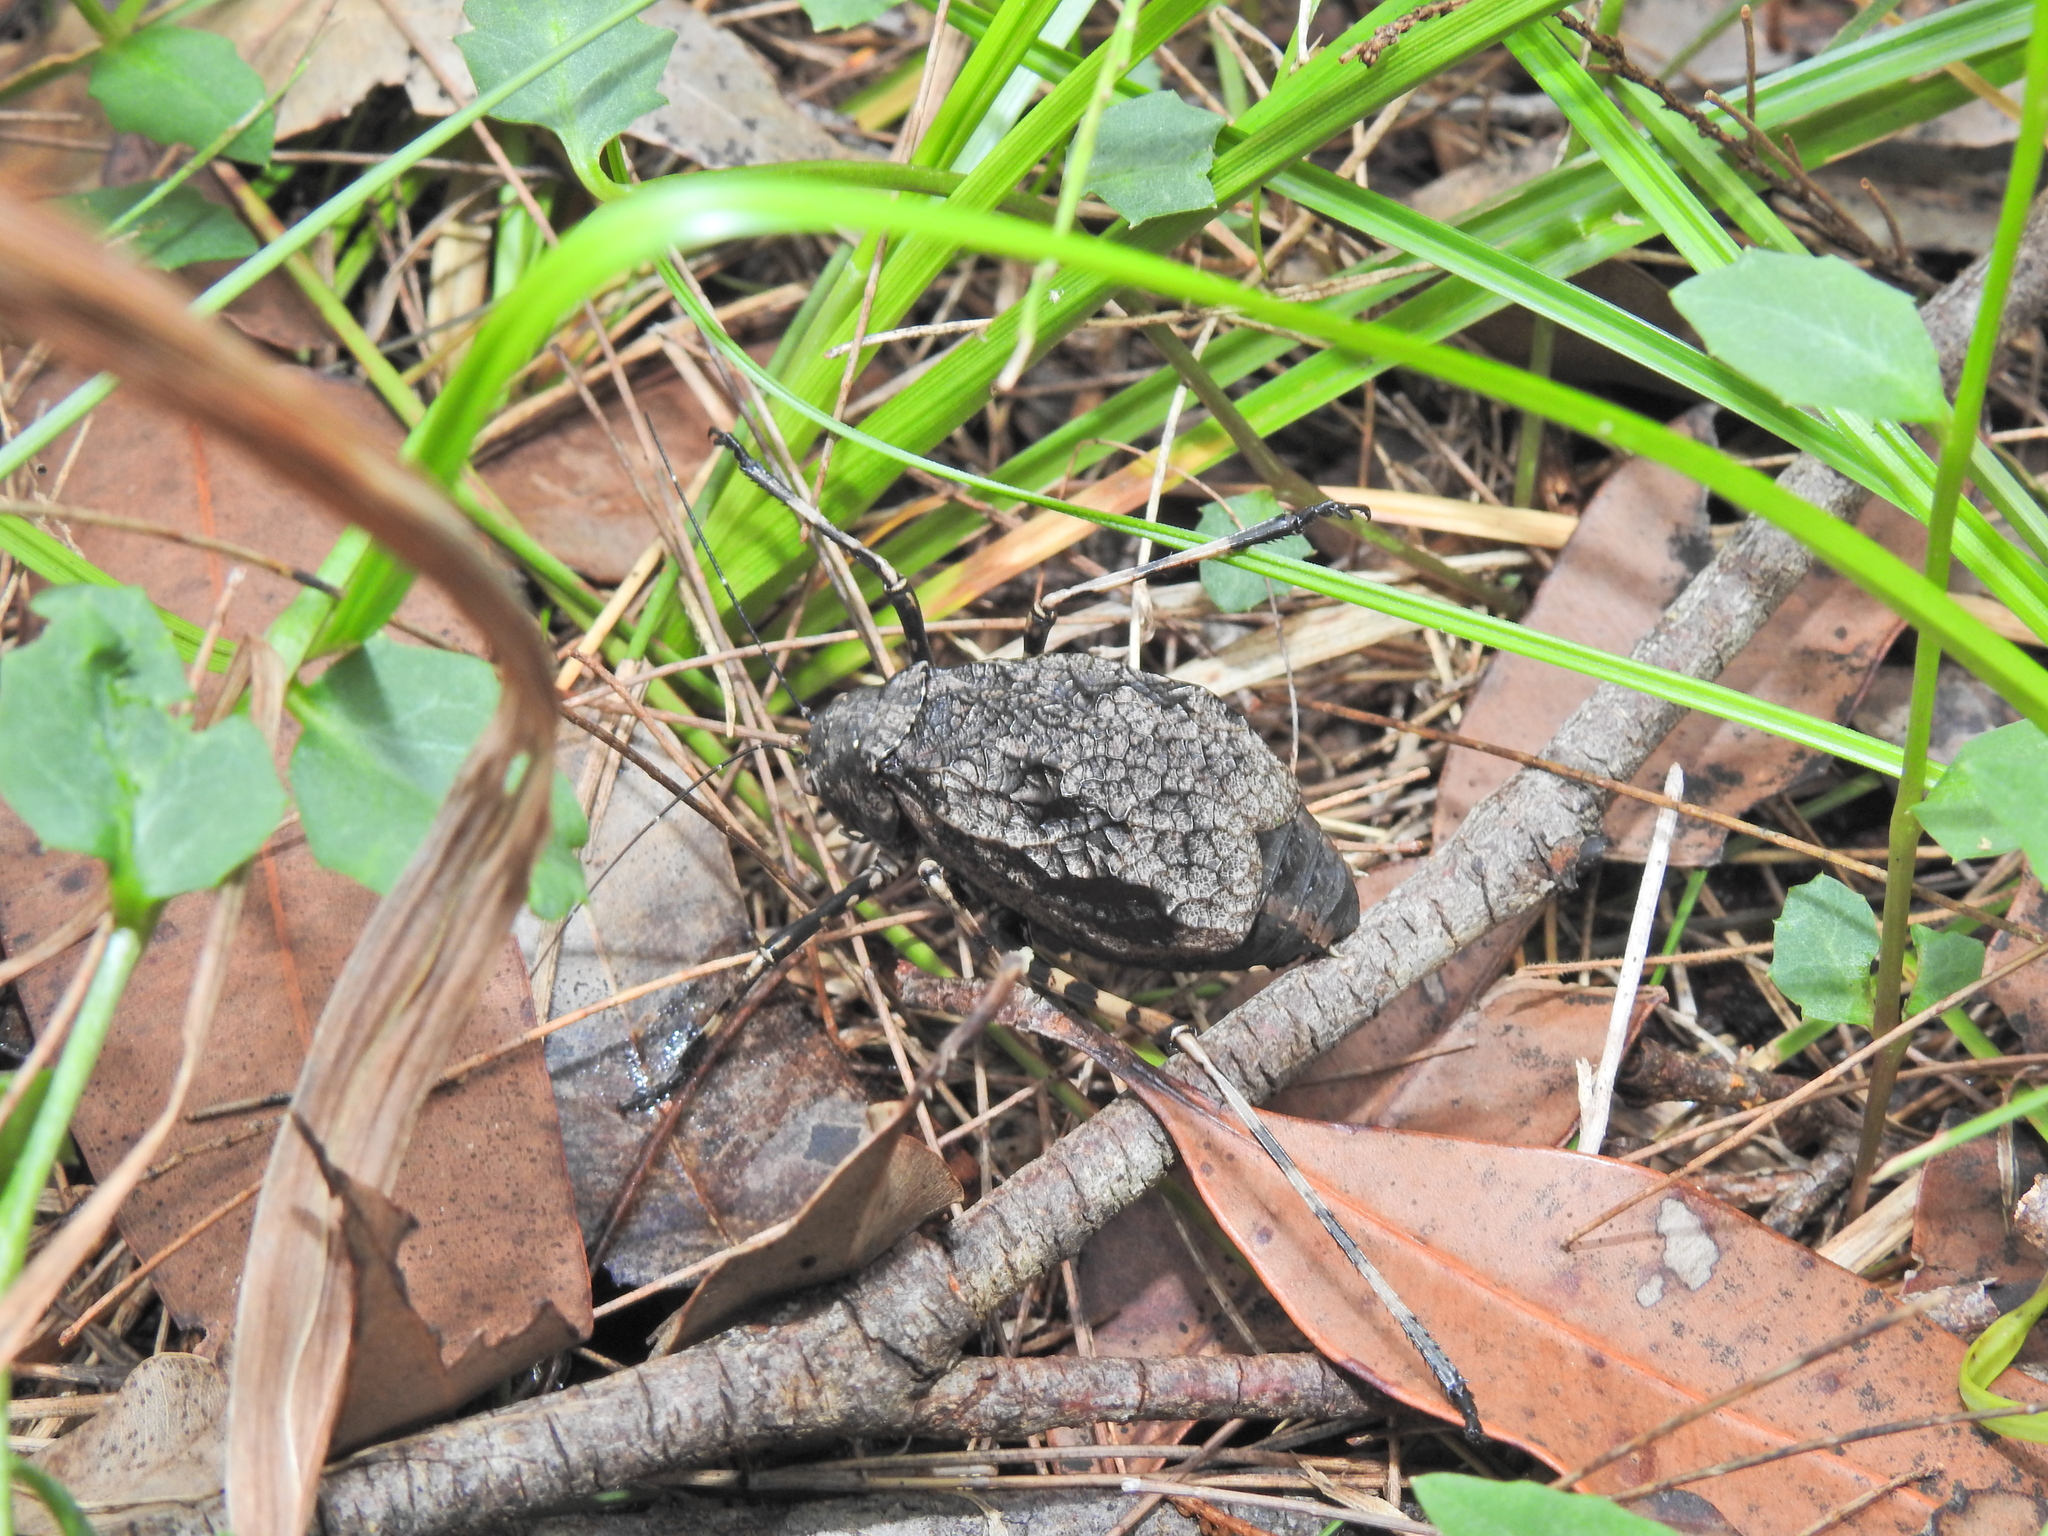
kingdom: Animalia
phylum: Arthropoda
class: Insecta
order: Orthoptera
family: Tettigoniidae
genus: Acripeza
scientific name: Acripeza reticulata
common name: Mountain katydid
